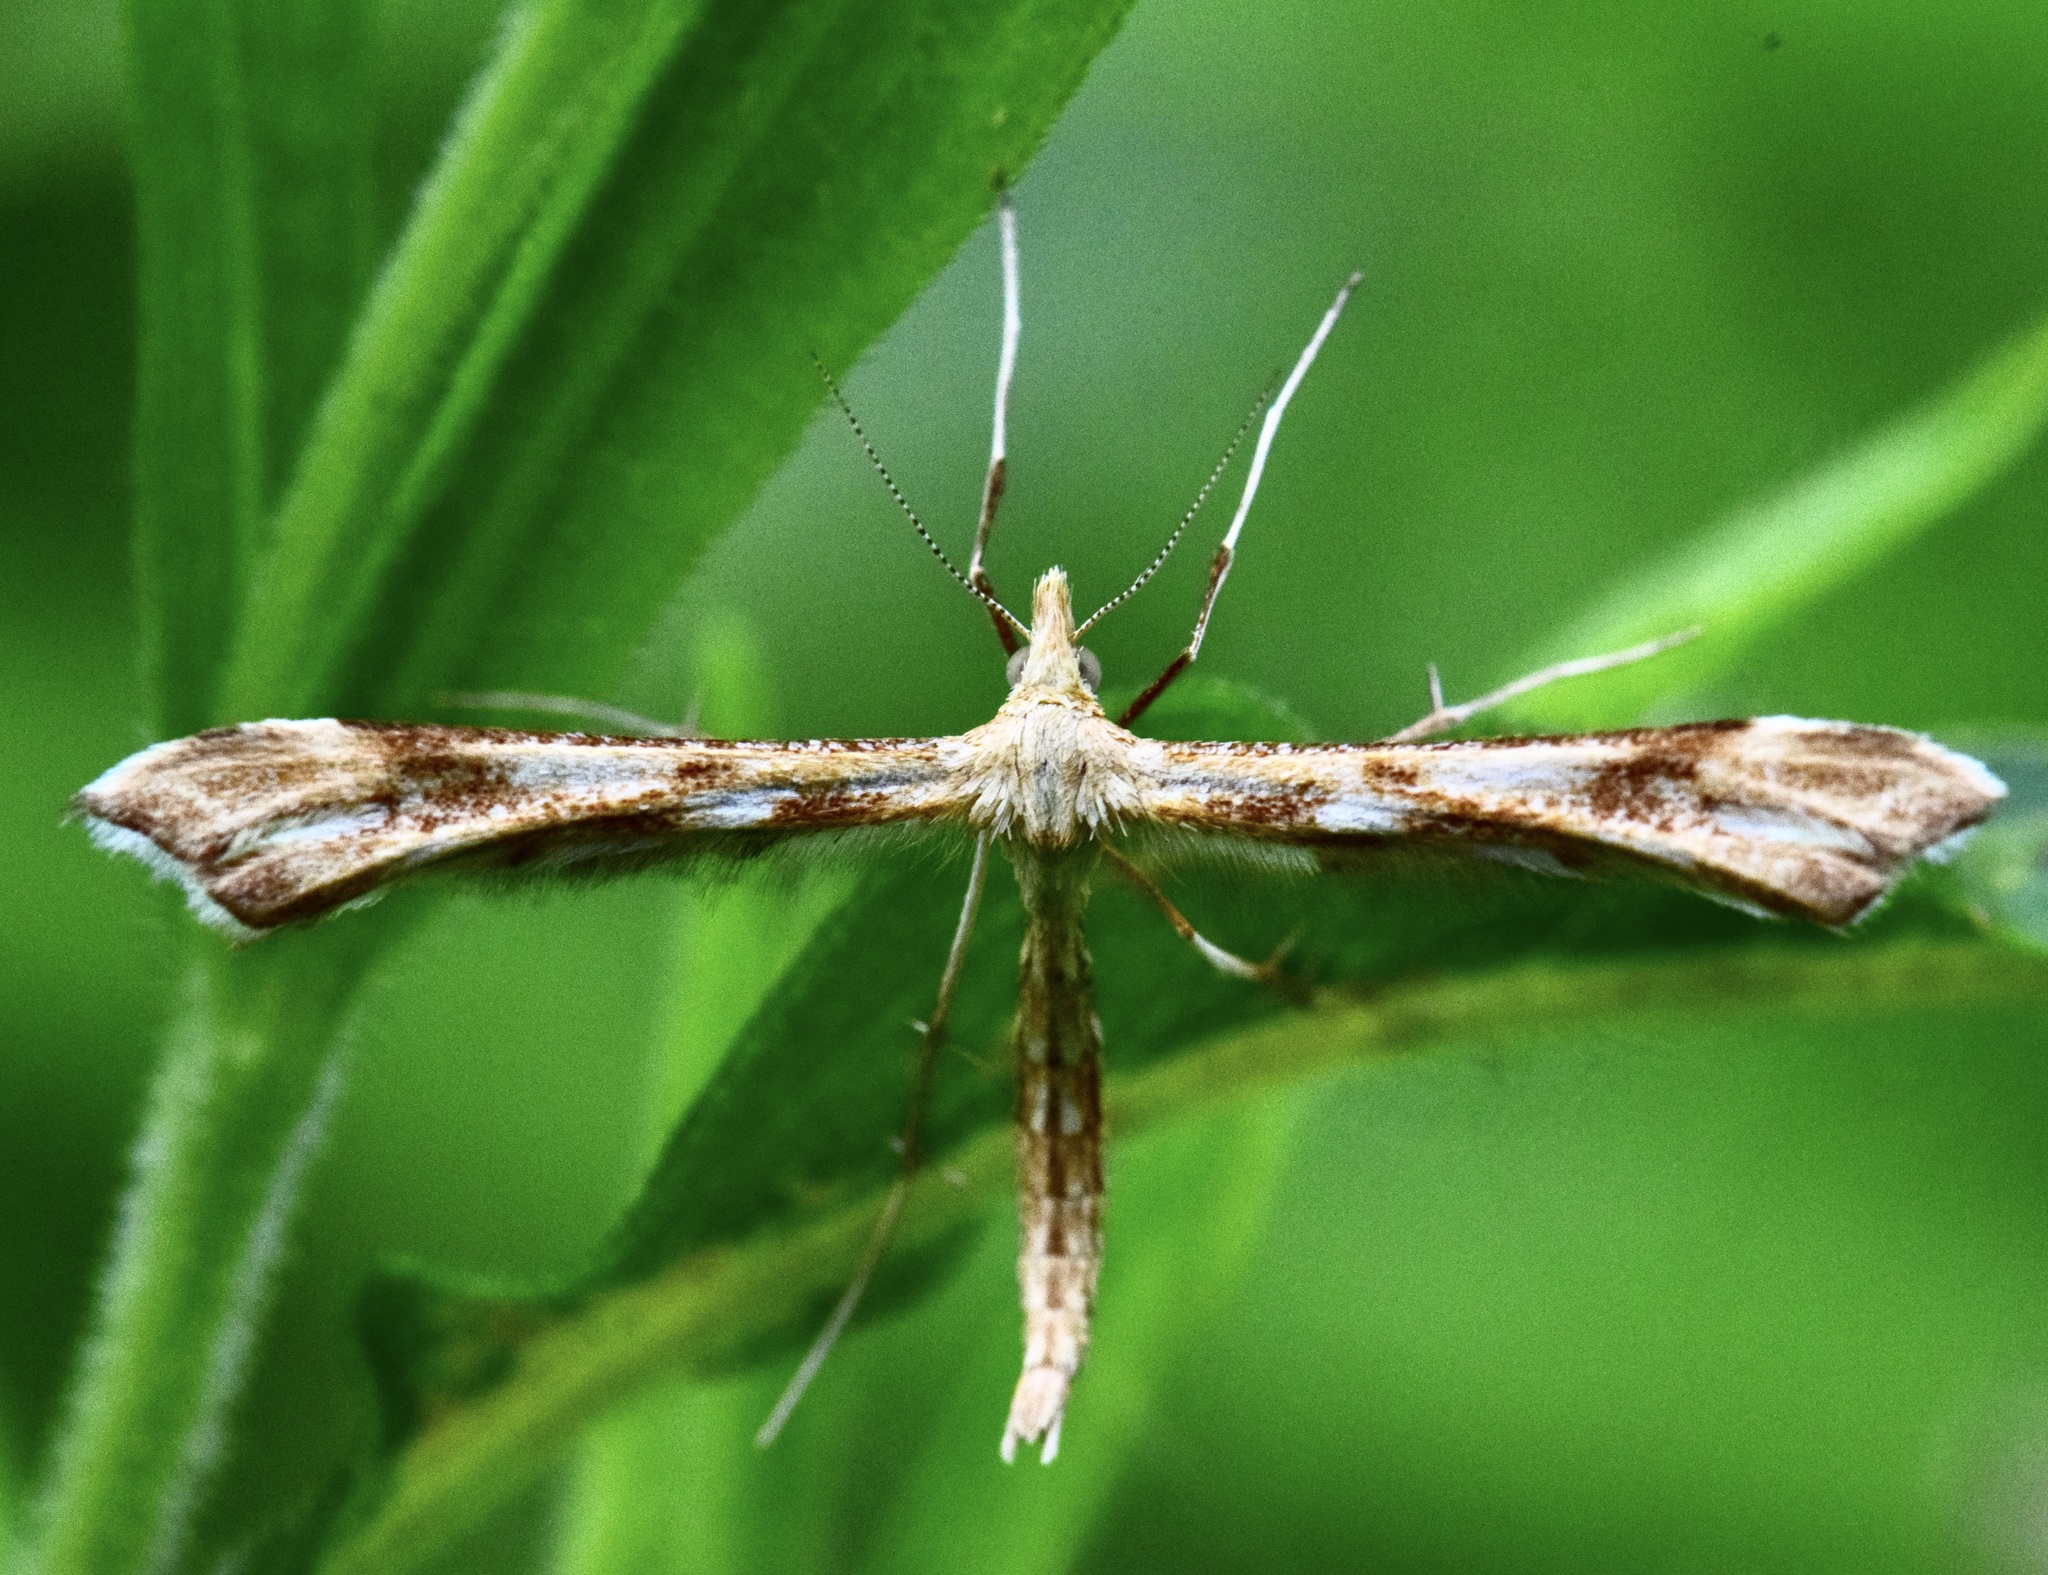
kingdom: Animalia
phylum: Arthropoda
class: Insecta
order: Lepidoptera
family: Pterophoridae
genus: Gillmeria
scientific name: Gillmeria pallidactyla
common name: Yarrow plume
